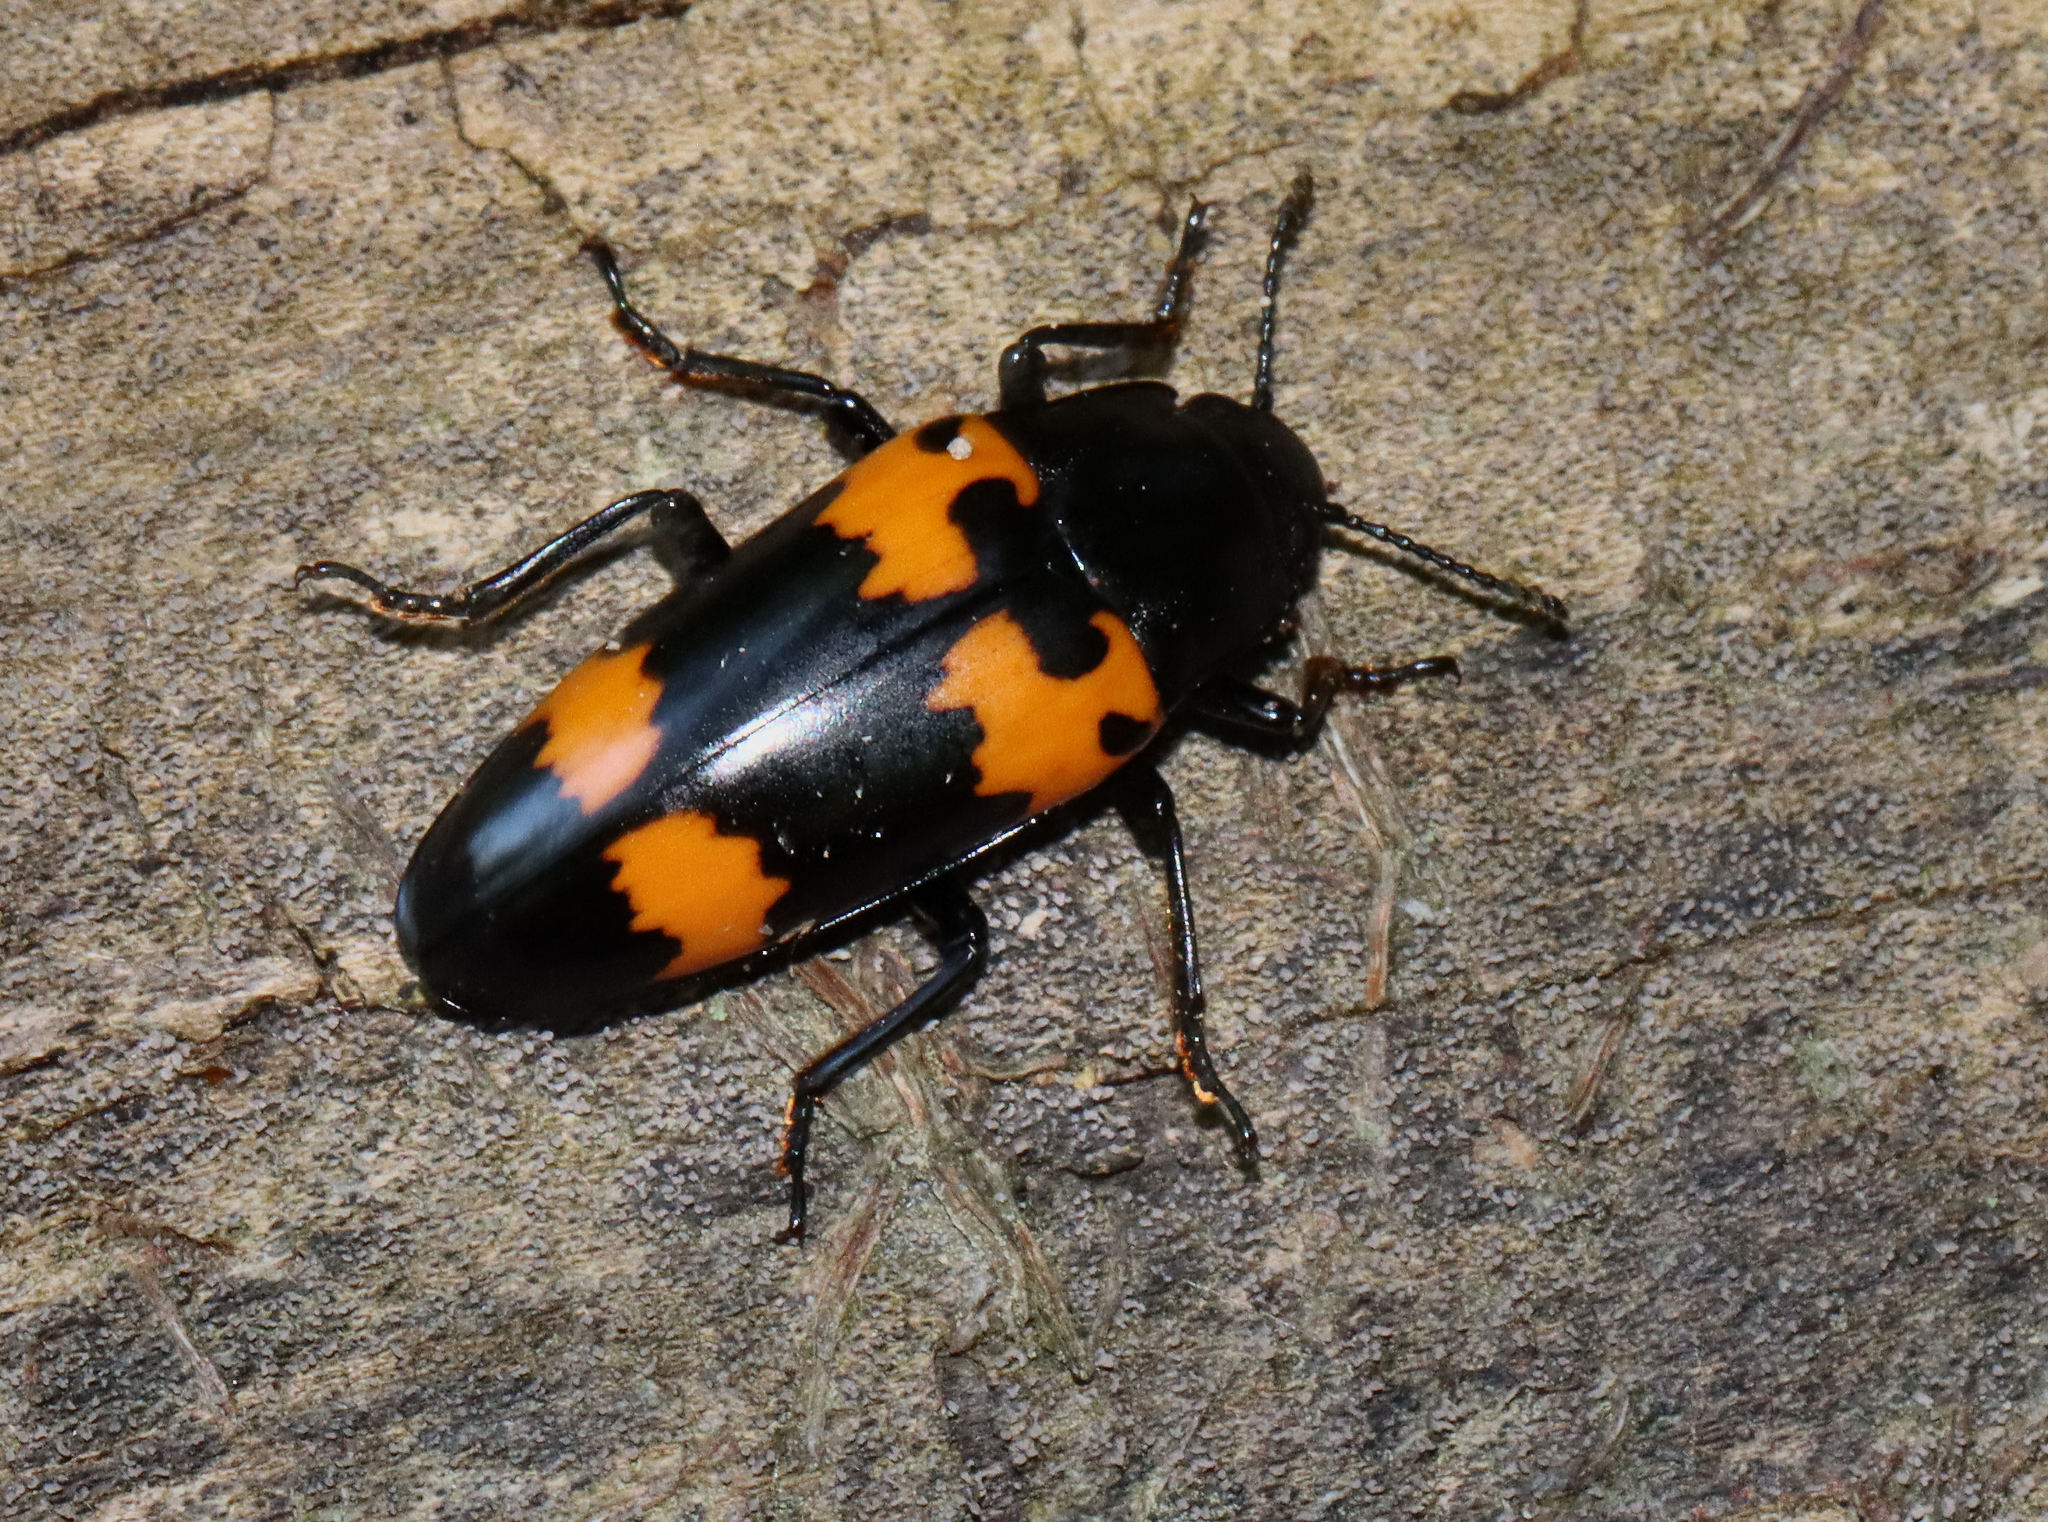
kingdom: Animalia
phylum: Arthropoda
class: Insecta
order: Coleoptera
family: Erotylidae
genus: Megalodacne
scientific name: Megalodacne heros
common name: Pleasing fungus beetle
